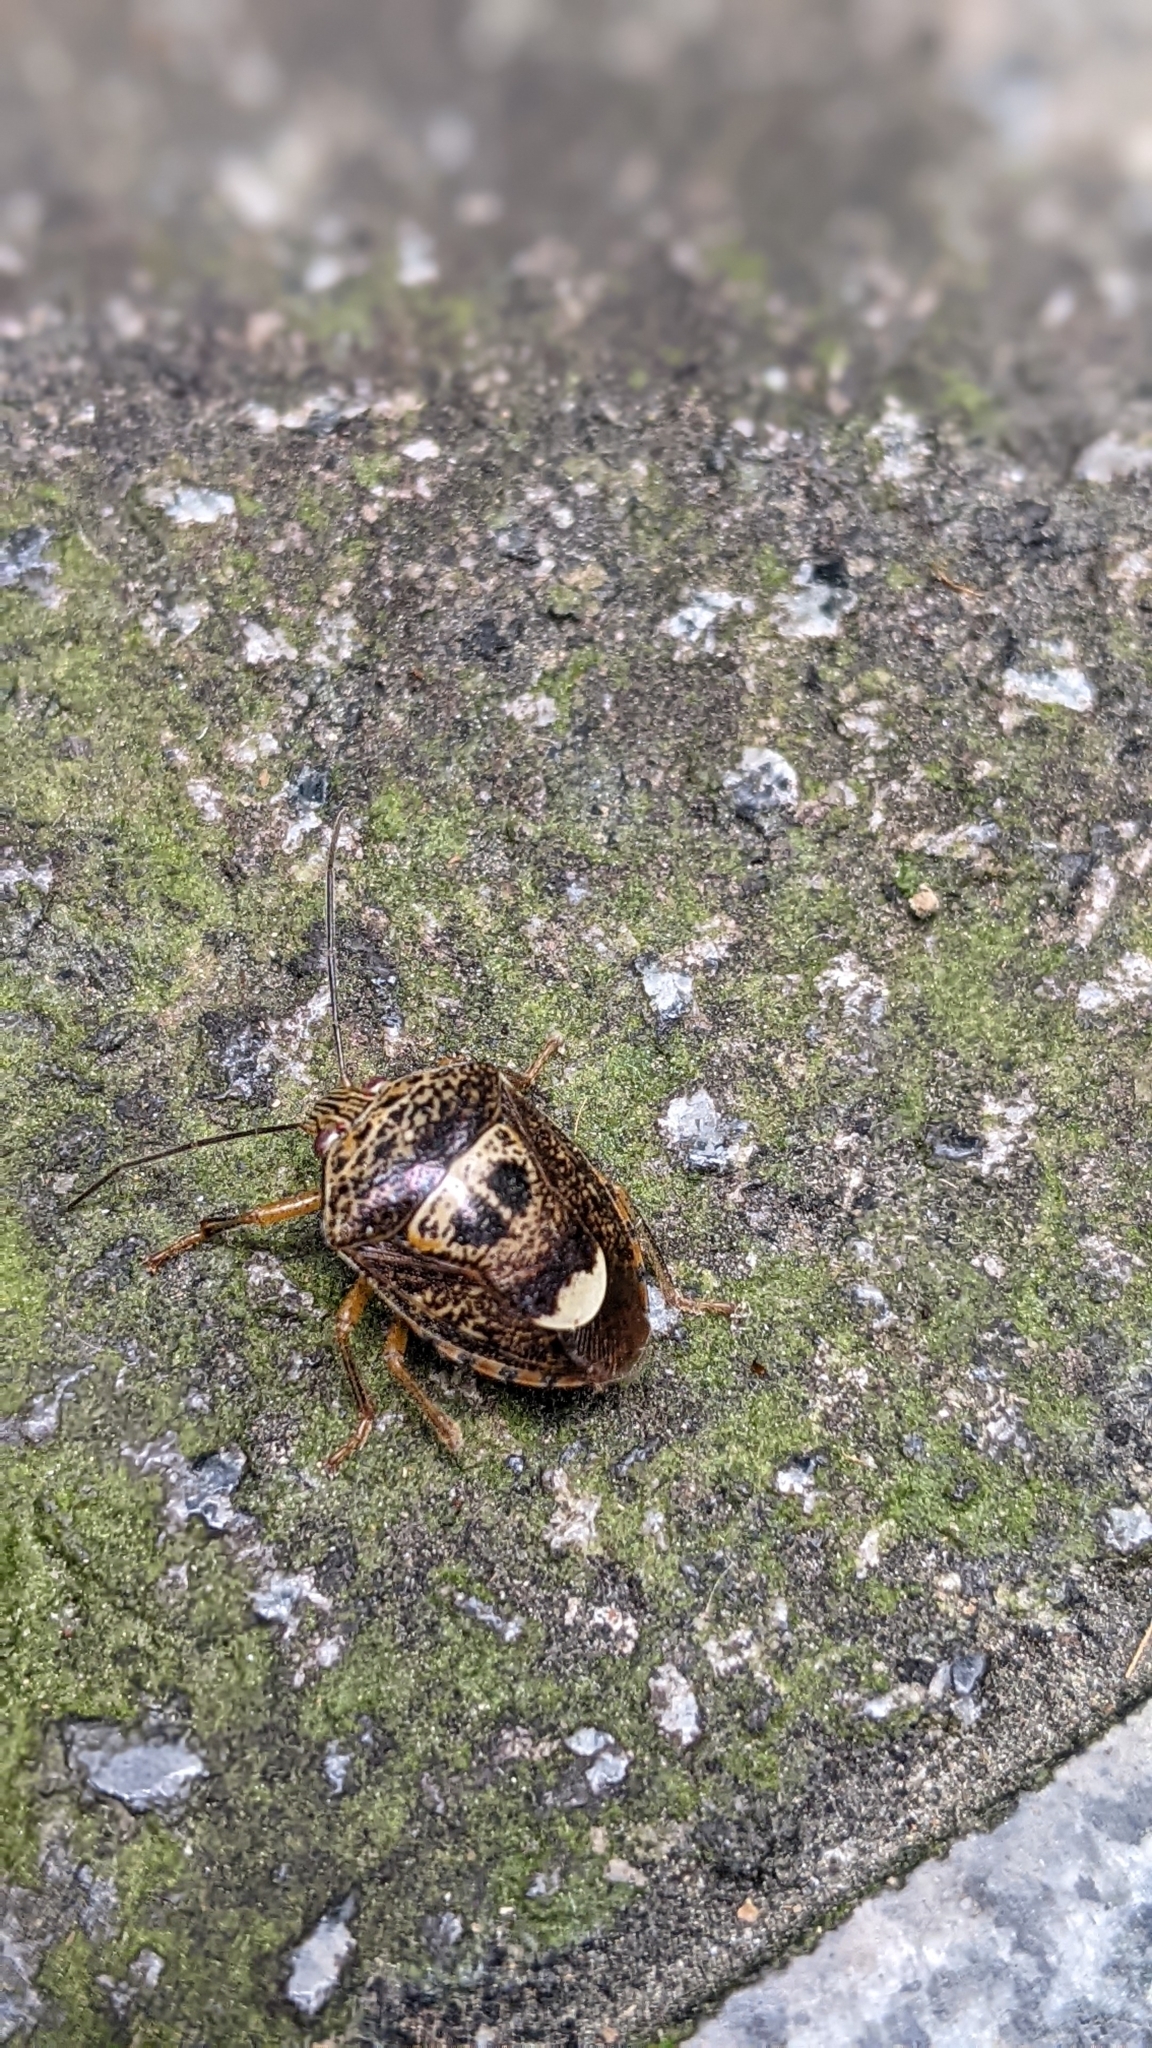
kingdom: Animalia
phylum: Arthropoda
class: Insecta
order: Hemiptera
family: Pentatomidae
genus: Axiagastus
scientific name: Axiagastus rosmarus
